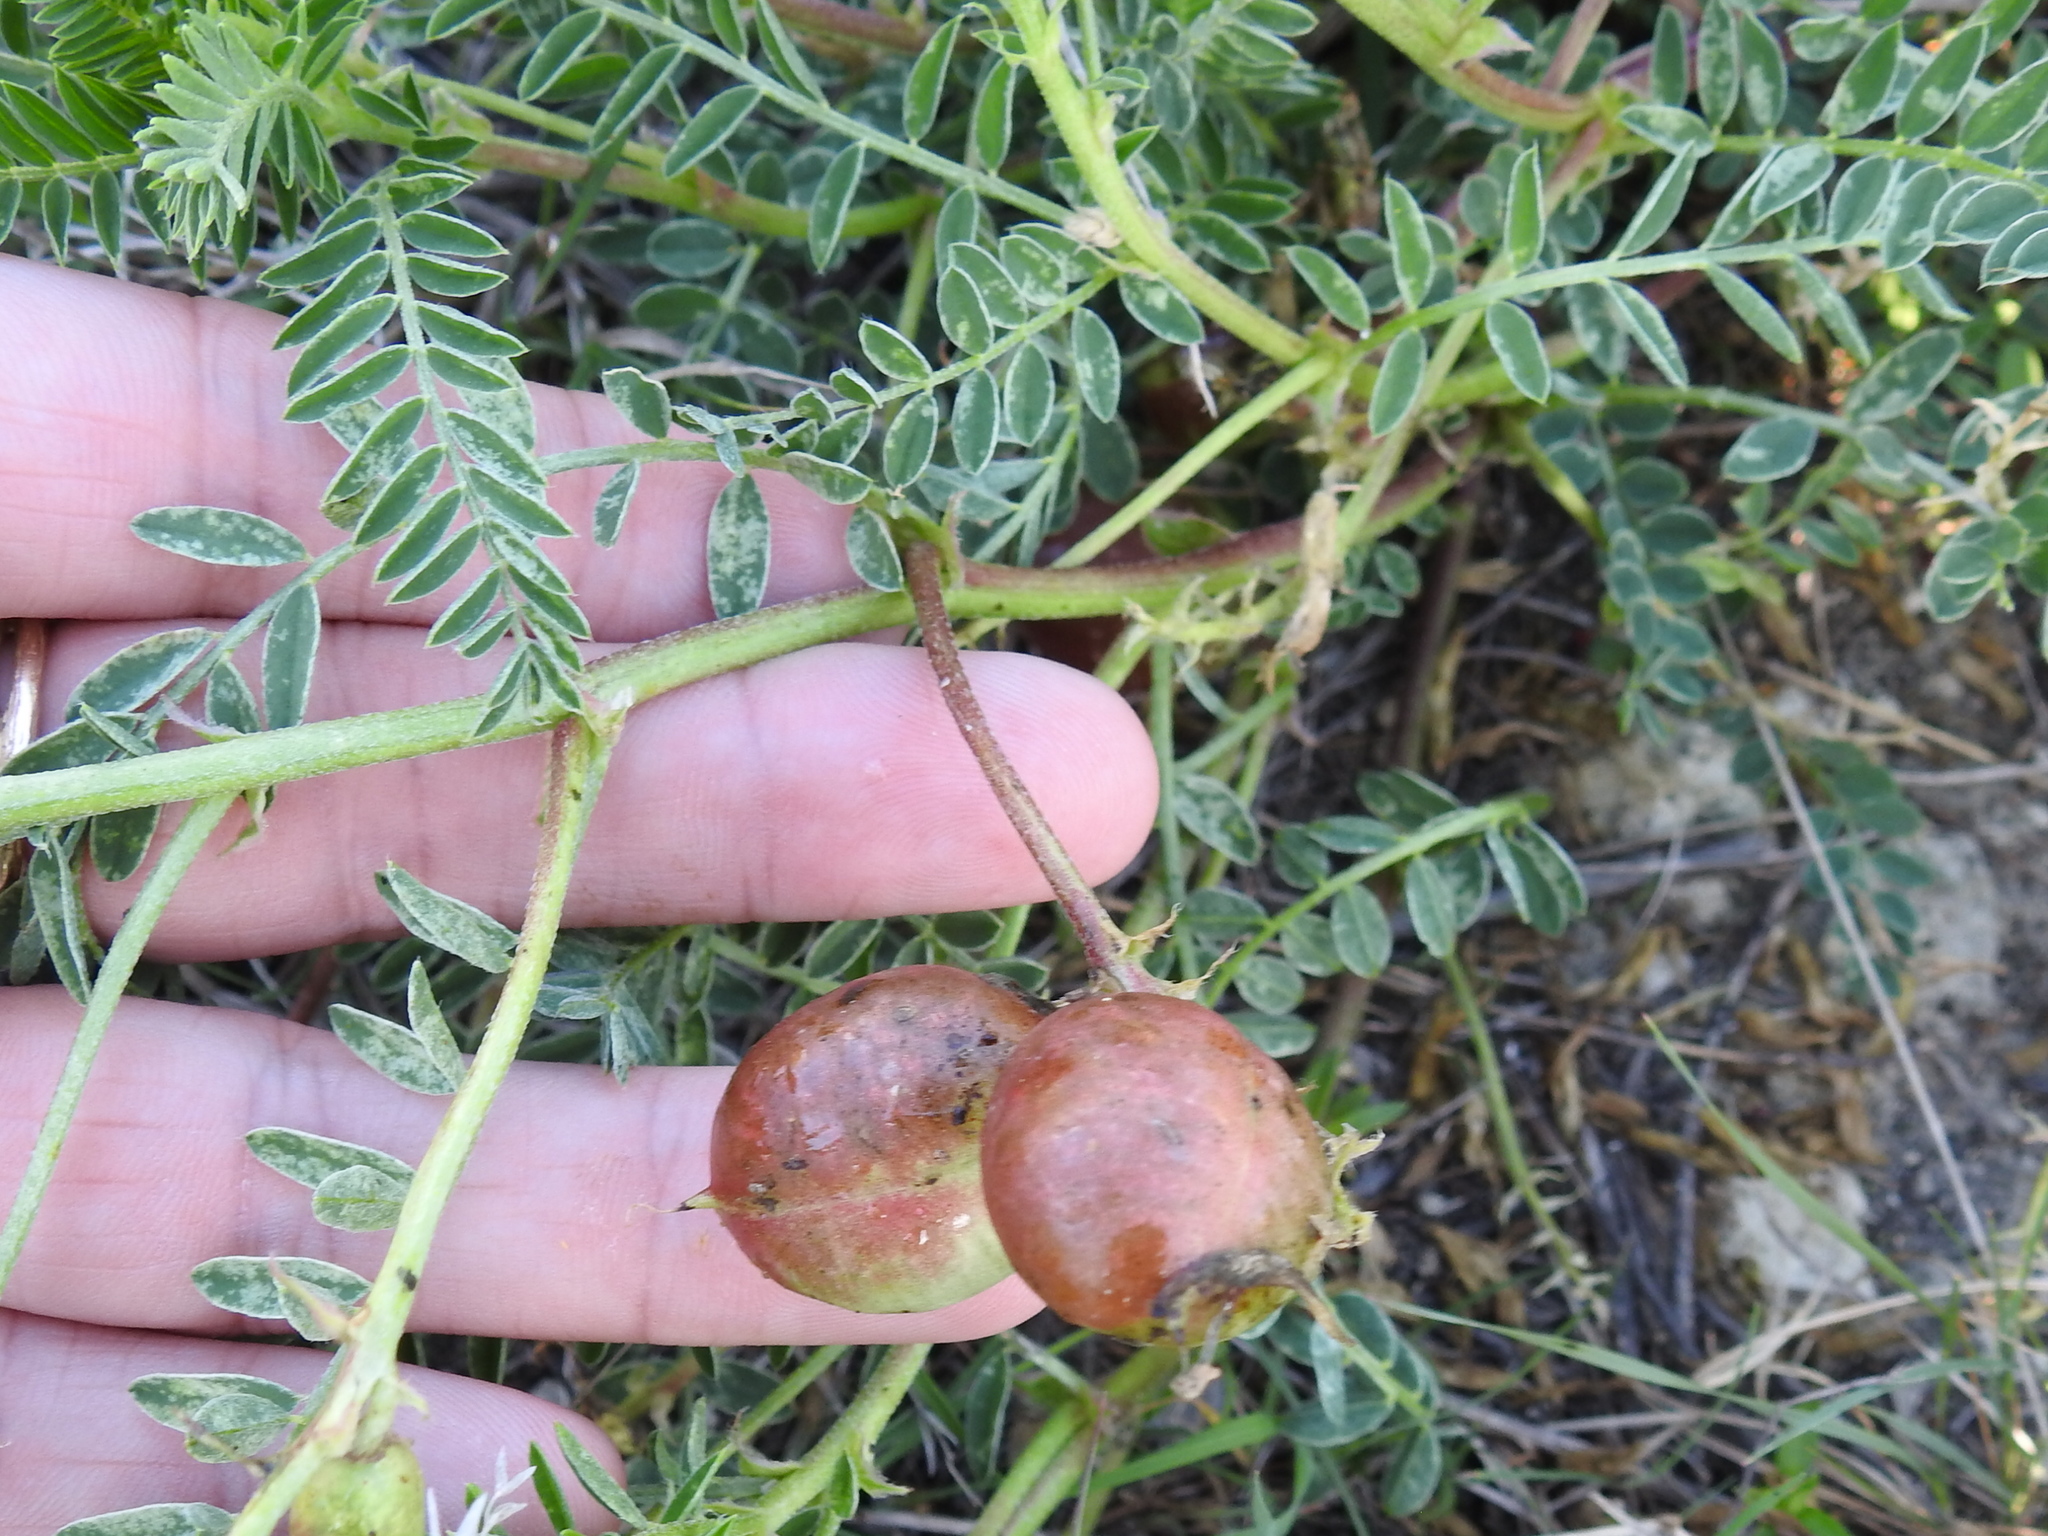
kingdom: Plantae
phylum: Tracheophyta
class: Magnoliopsida
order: Fabales
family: Fabaceae
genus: Astragalus
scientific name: Astragalus crassicarpus
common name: Ground-plum milk-vetch
